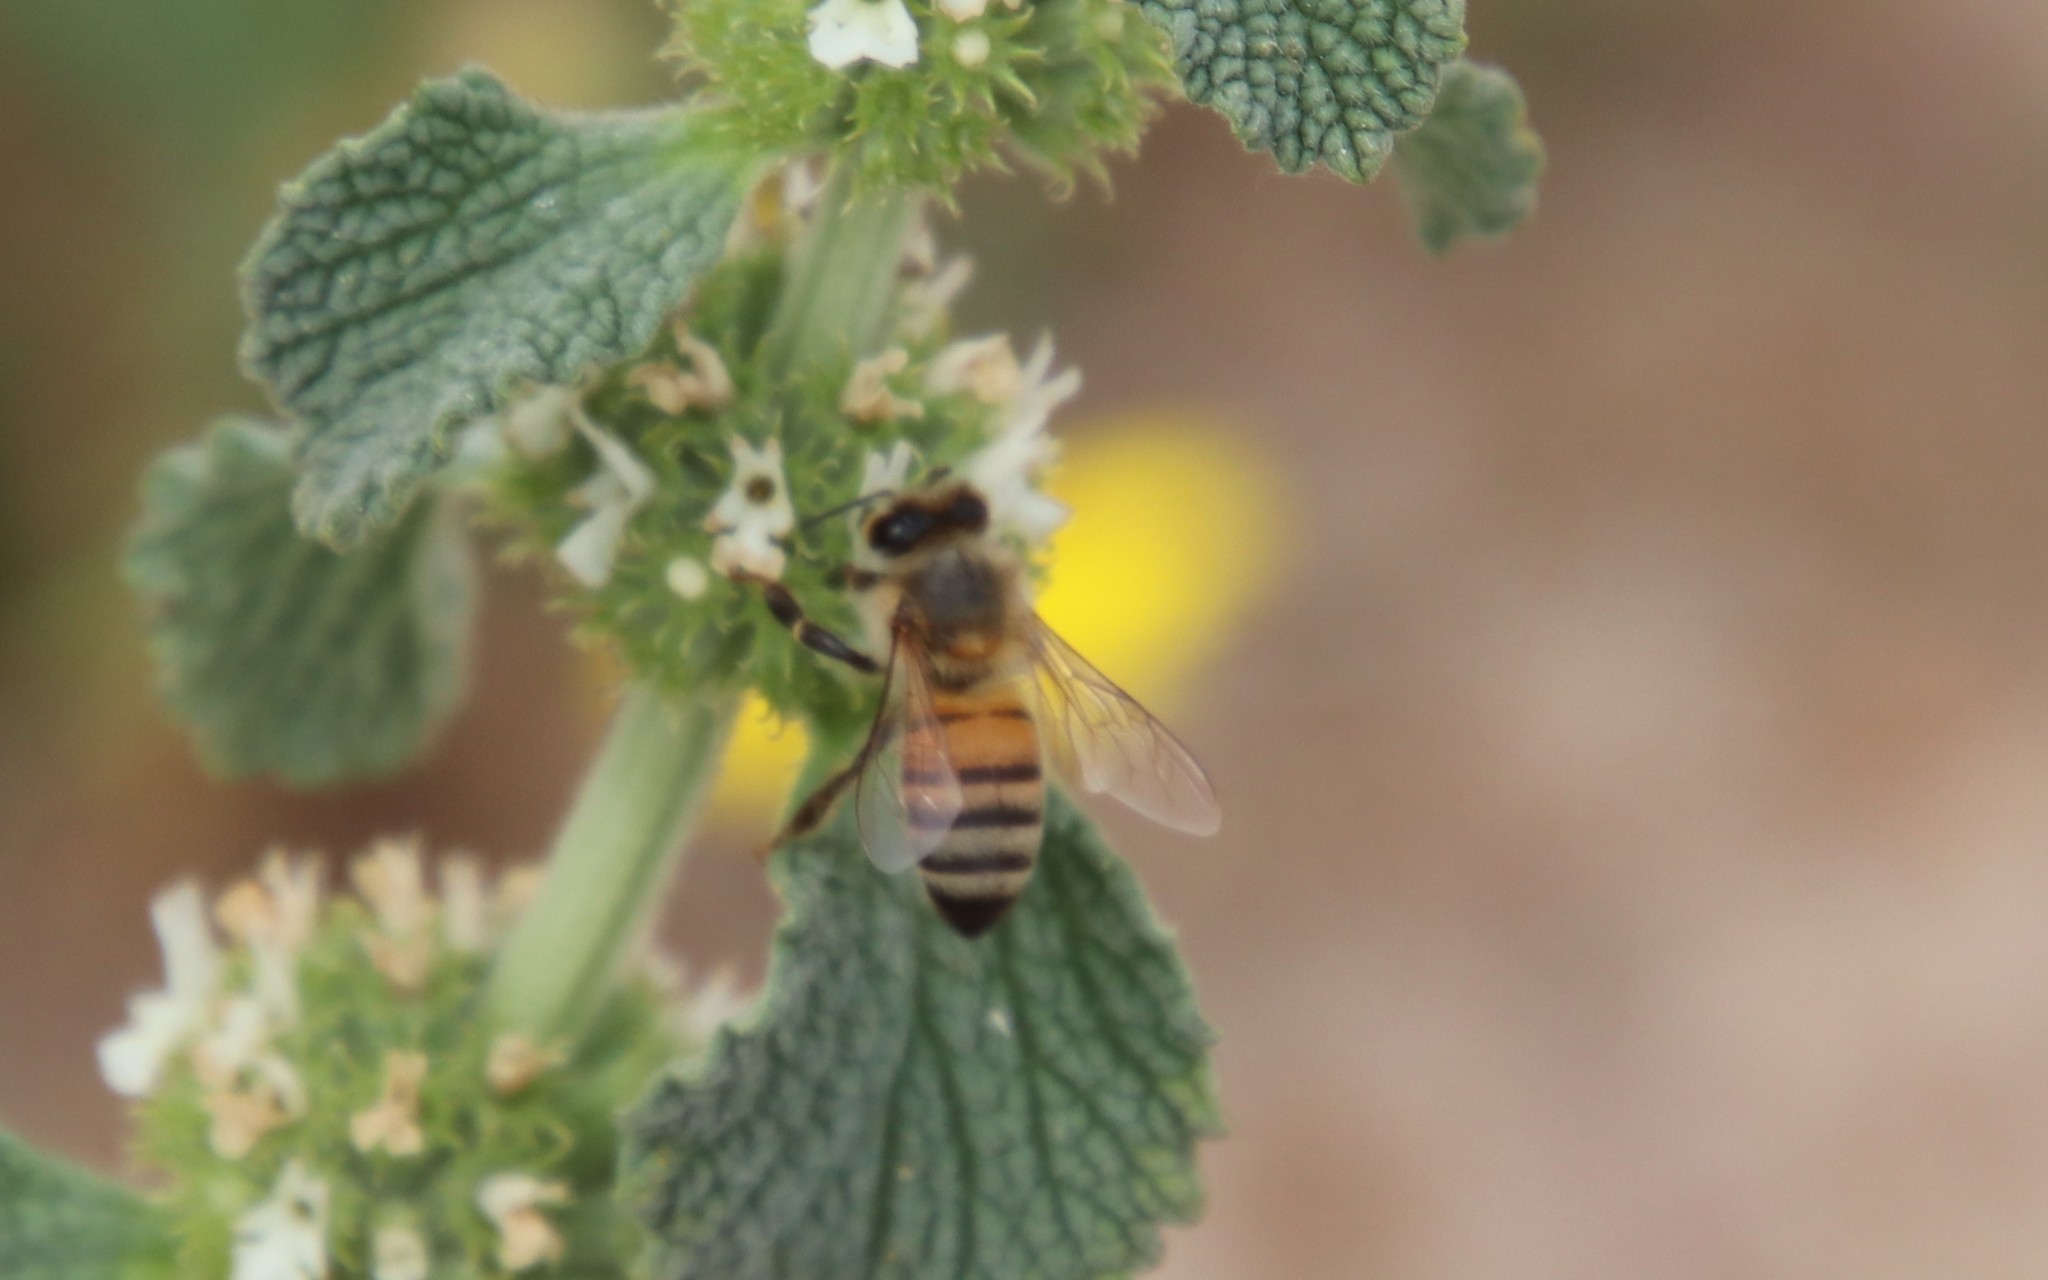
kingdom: Animalia
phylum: Arthropoda
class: Insecta
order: Hymenoptera
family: Apidae
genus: Apis
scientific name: Apis mellifera
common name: Honey bee
